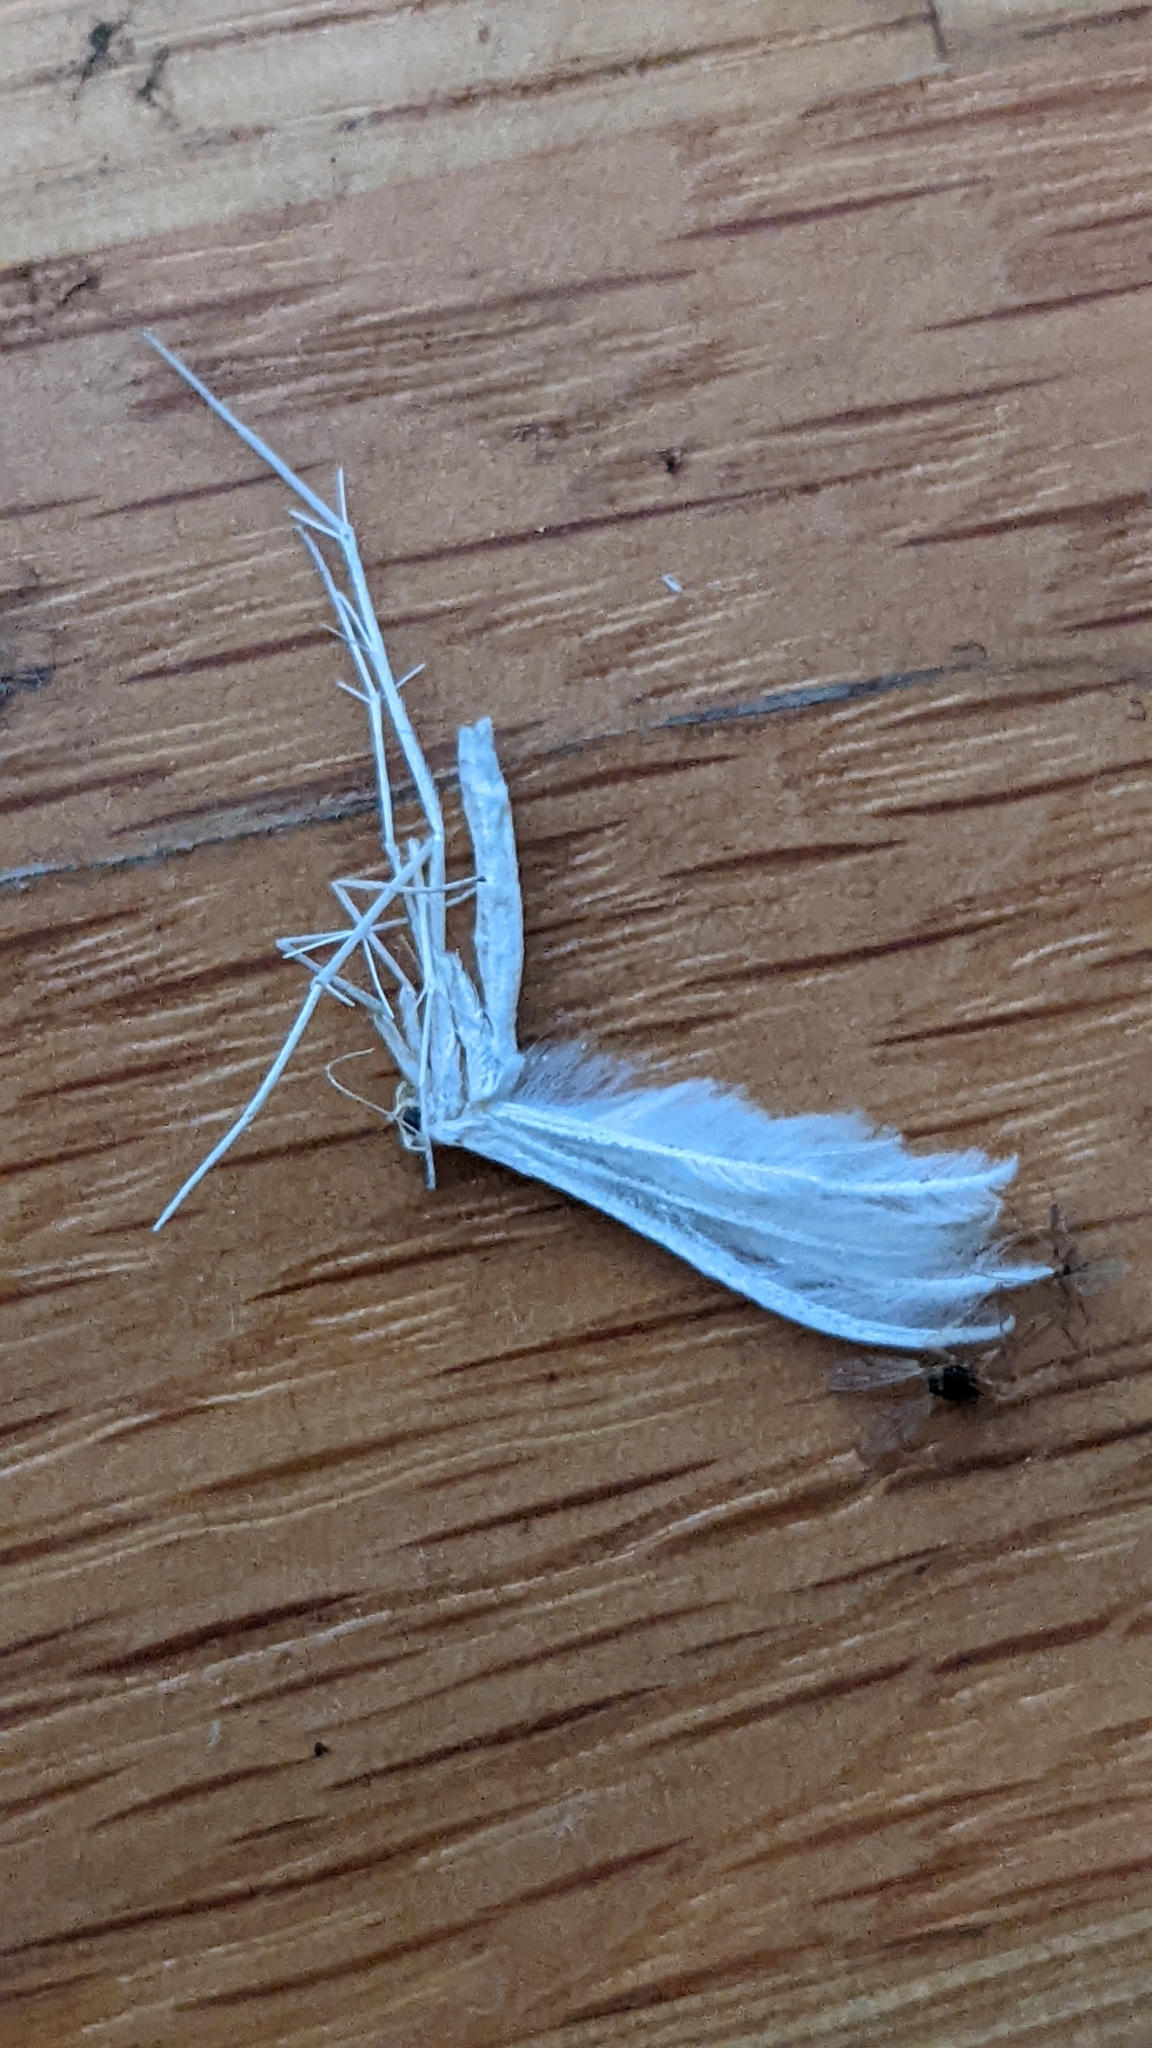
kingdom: Animalia
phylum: Arthropoda
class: Insecta
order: Lepidoptera
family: Pterophoridae
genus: Pterophorus
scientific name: Pterophorus pentadactyla
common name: White plume moth
